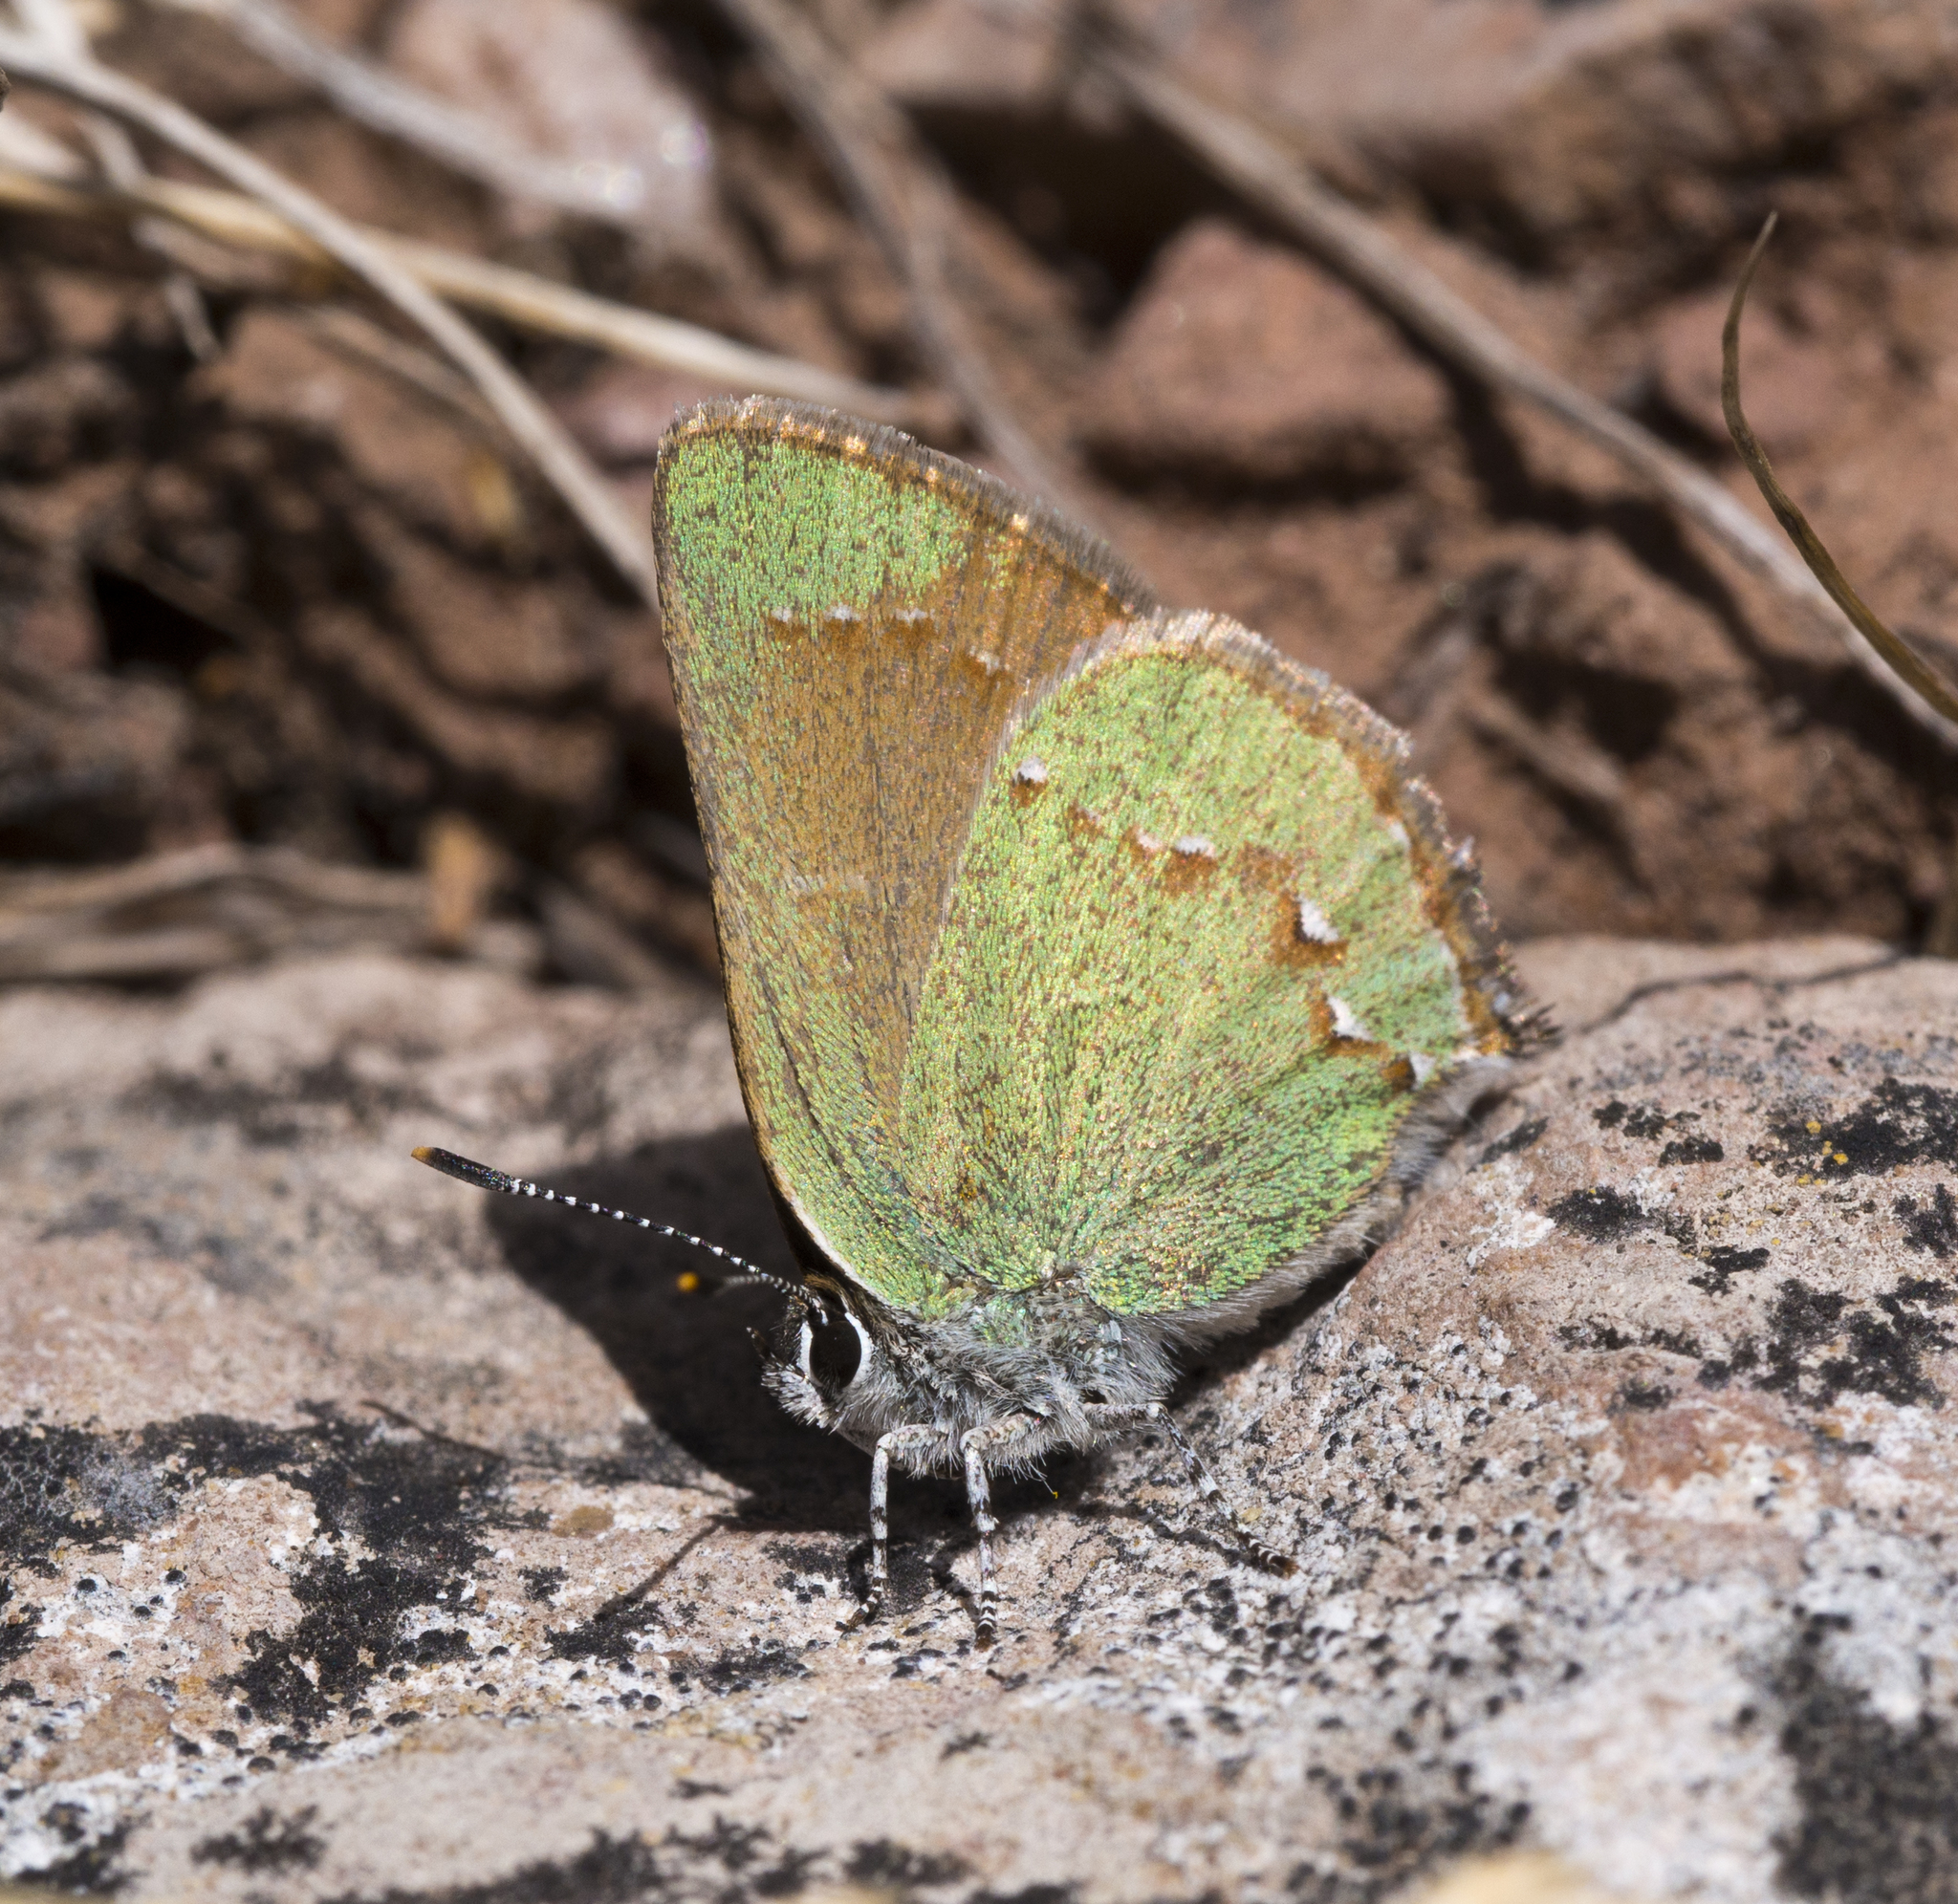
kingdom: Animalia
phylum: Arthropoda
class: Insecta
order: Lepidoptera
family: Lycaenidae
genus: Callophrys
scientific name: Callophrys apama
